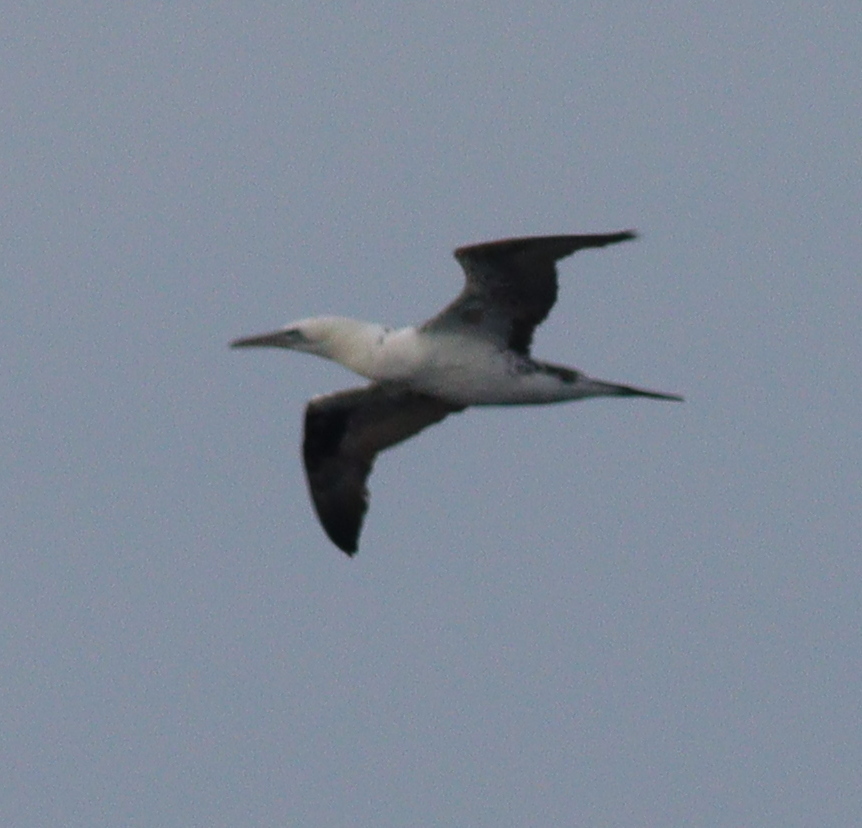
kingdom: Animalia
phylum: Chordata
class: Aves
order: Suliformes
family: Sulidae
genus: Morus
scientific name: Morus bassanus
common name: Northern gannet
